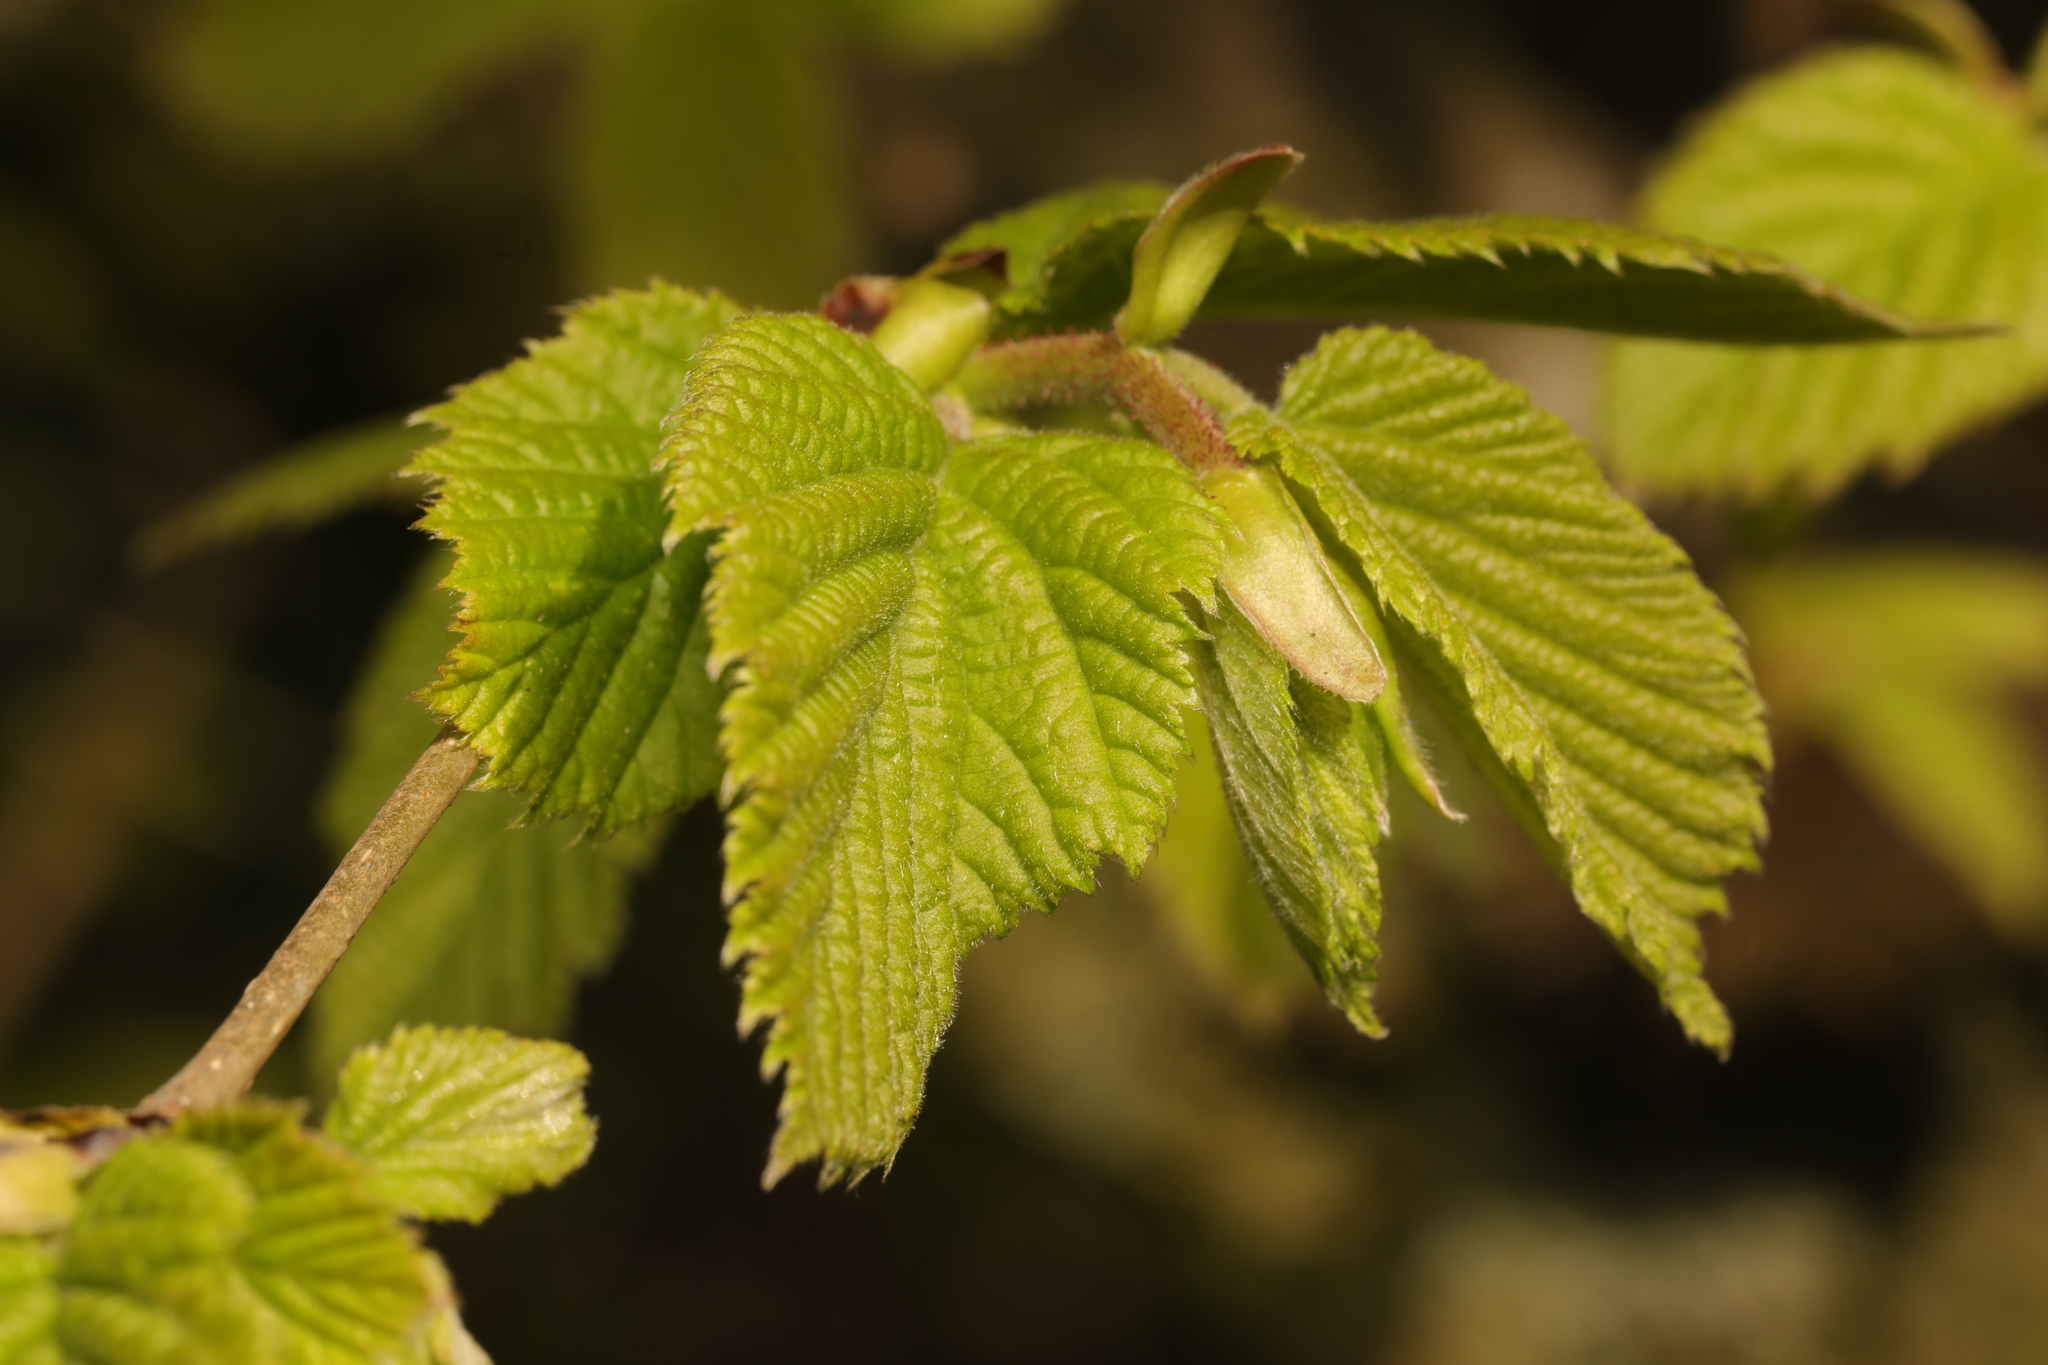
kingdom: Plantae
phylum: Tracheophyta
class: Magnoliopsida
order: Fagales
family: Betulaceae
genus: Corylus
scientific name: Corylus avellana
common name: European hazel
